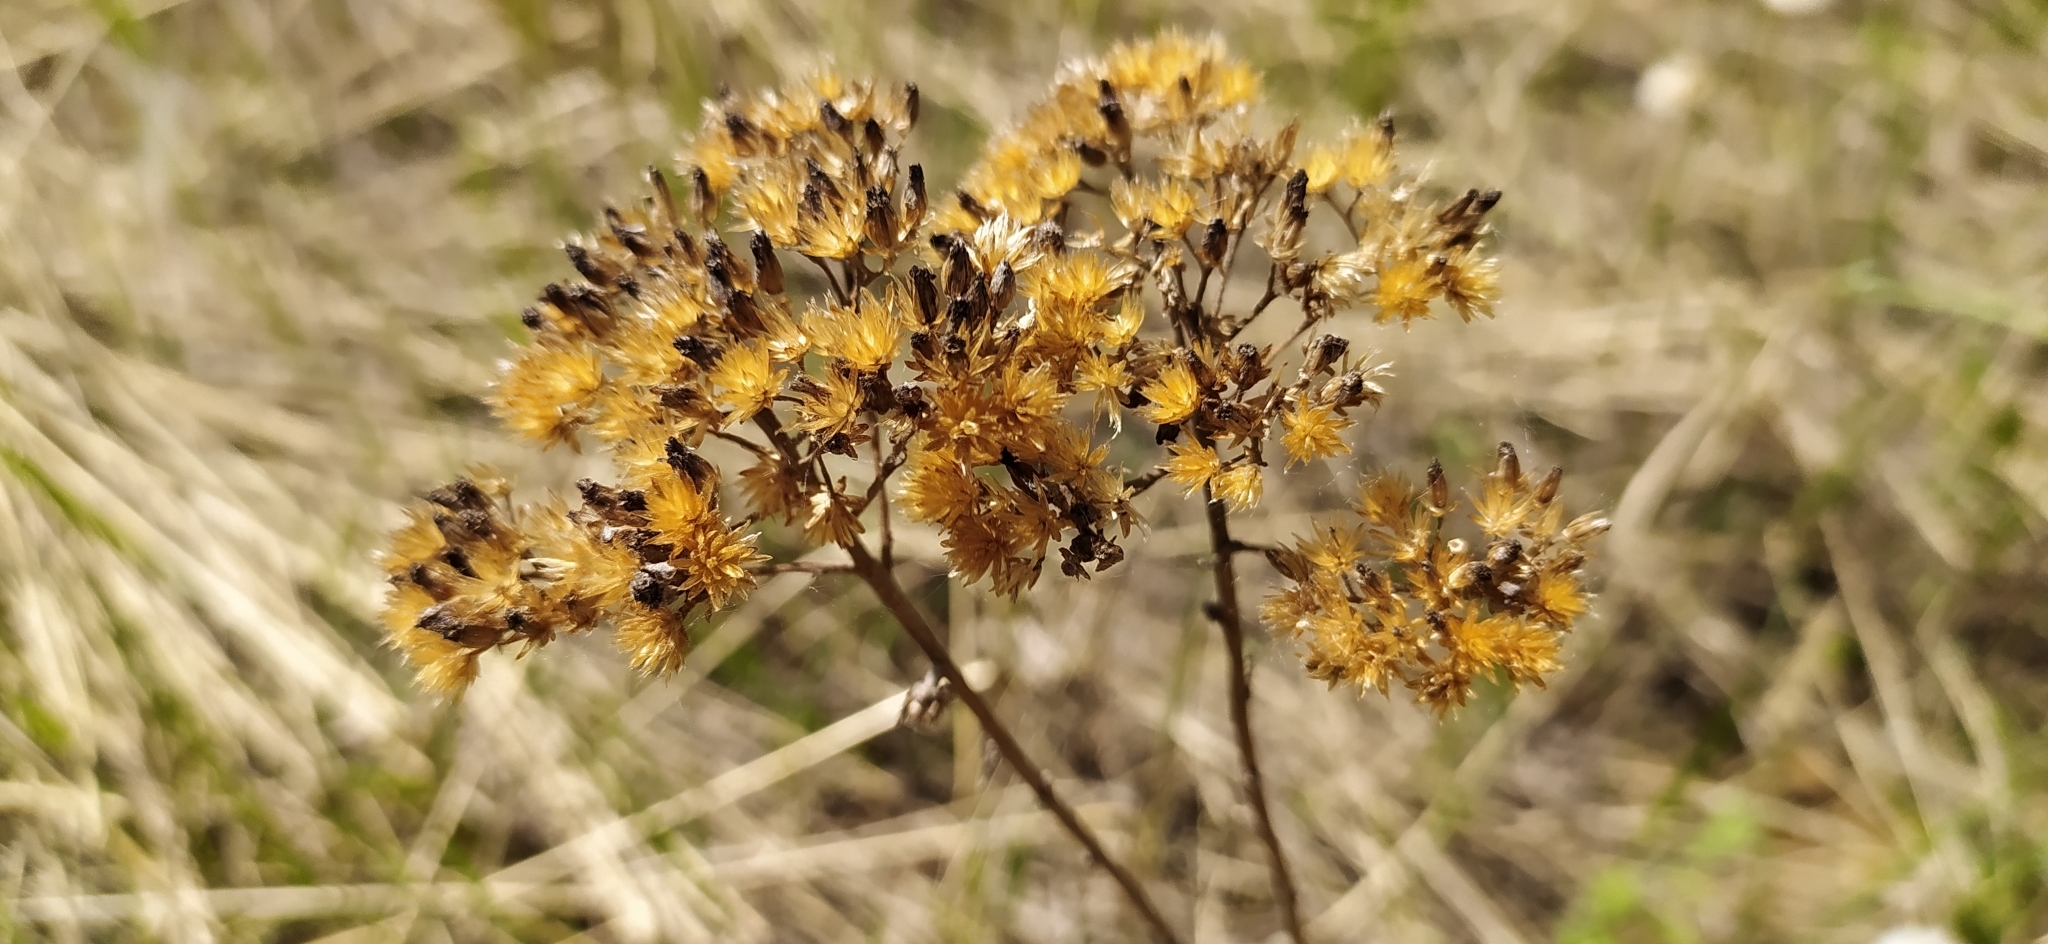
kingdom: Plantae
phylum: Tracheophyta
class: Magnoliopsida
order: Asterales
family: Asteraceae
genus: Achillea
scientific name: Achillea millefolium
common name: Yarrow
